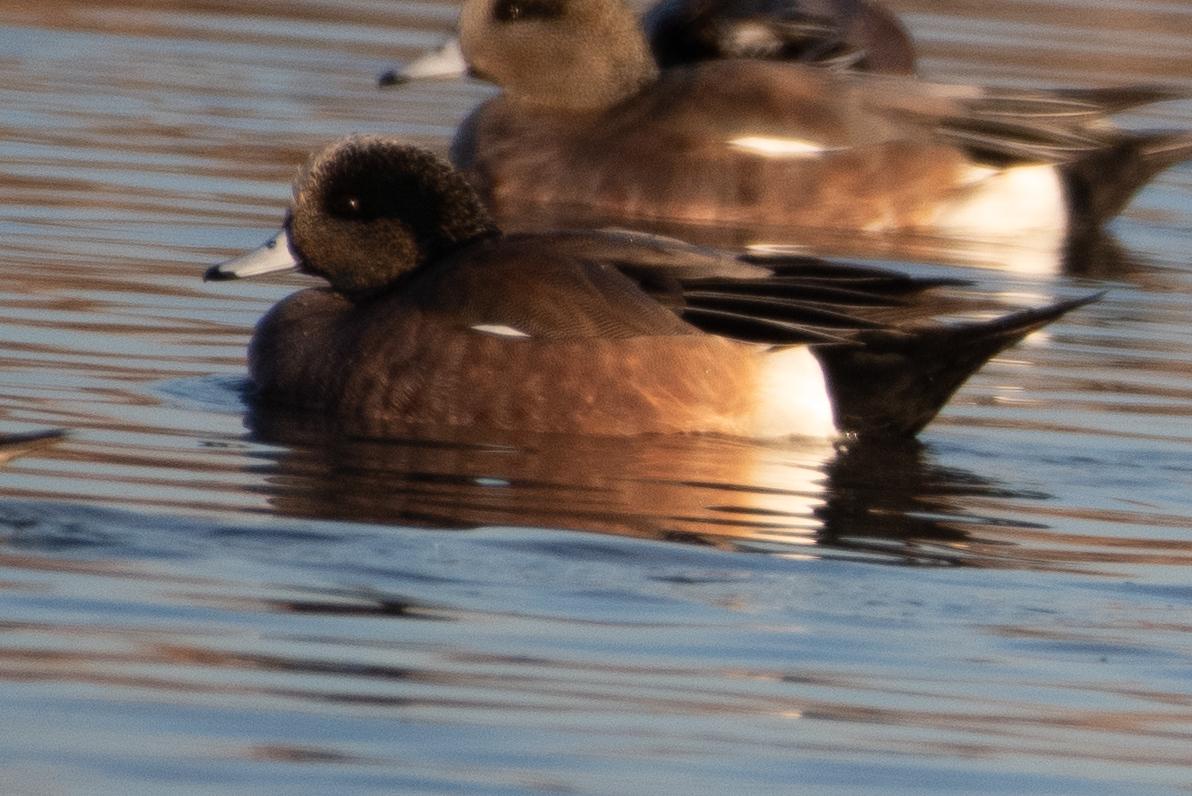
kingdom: Animalia
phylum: Chordata
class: Aves
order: Anseriformes
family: Anatidae
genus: Mareca
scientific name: Mareca americana
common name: American wigeon
